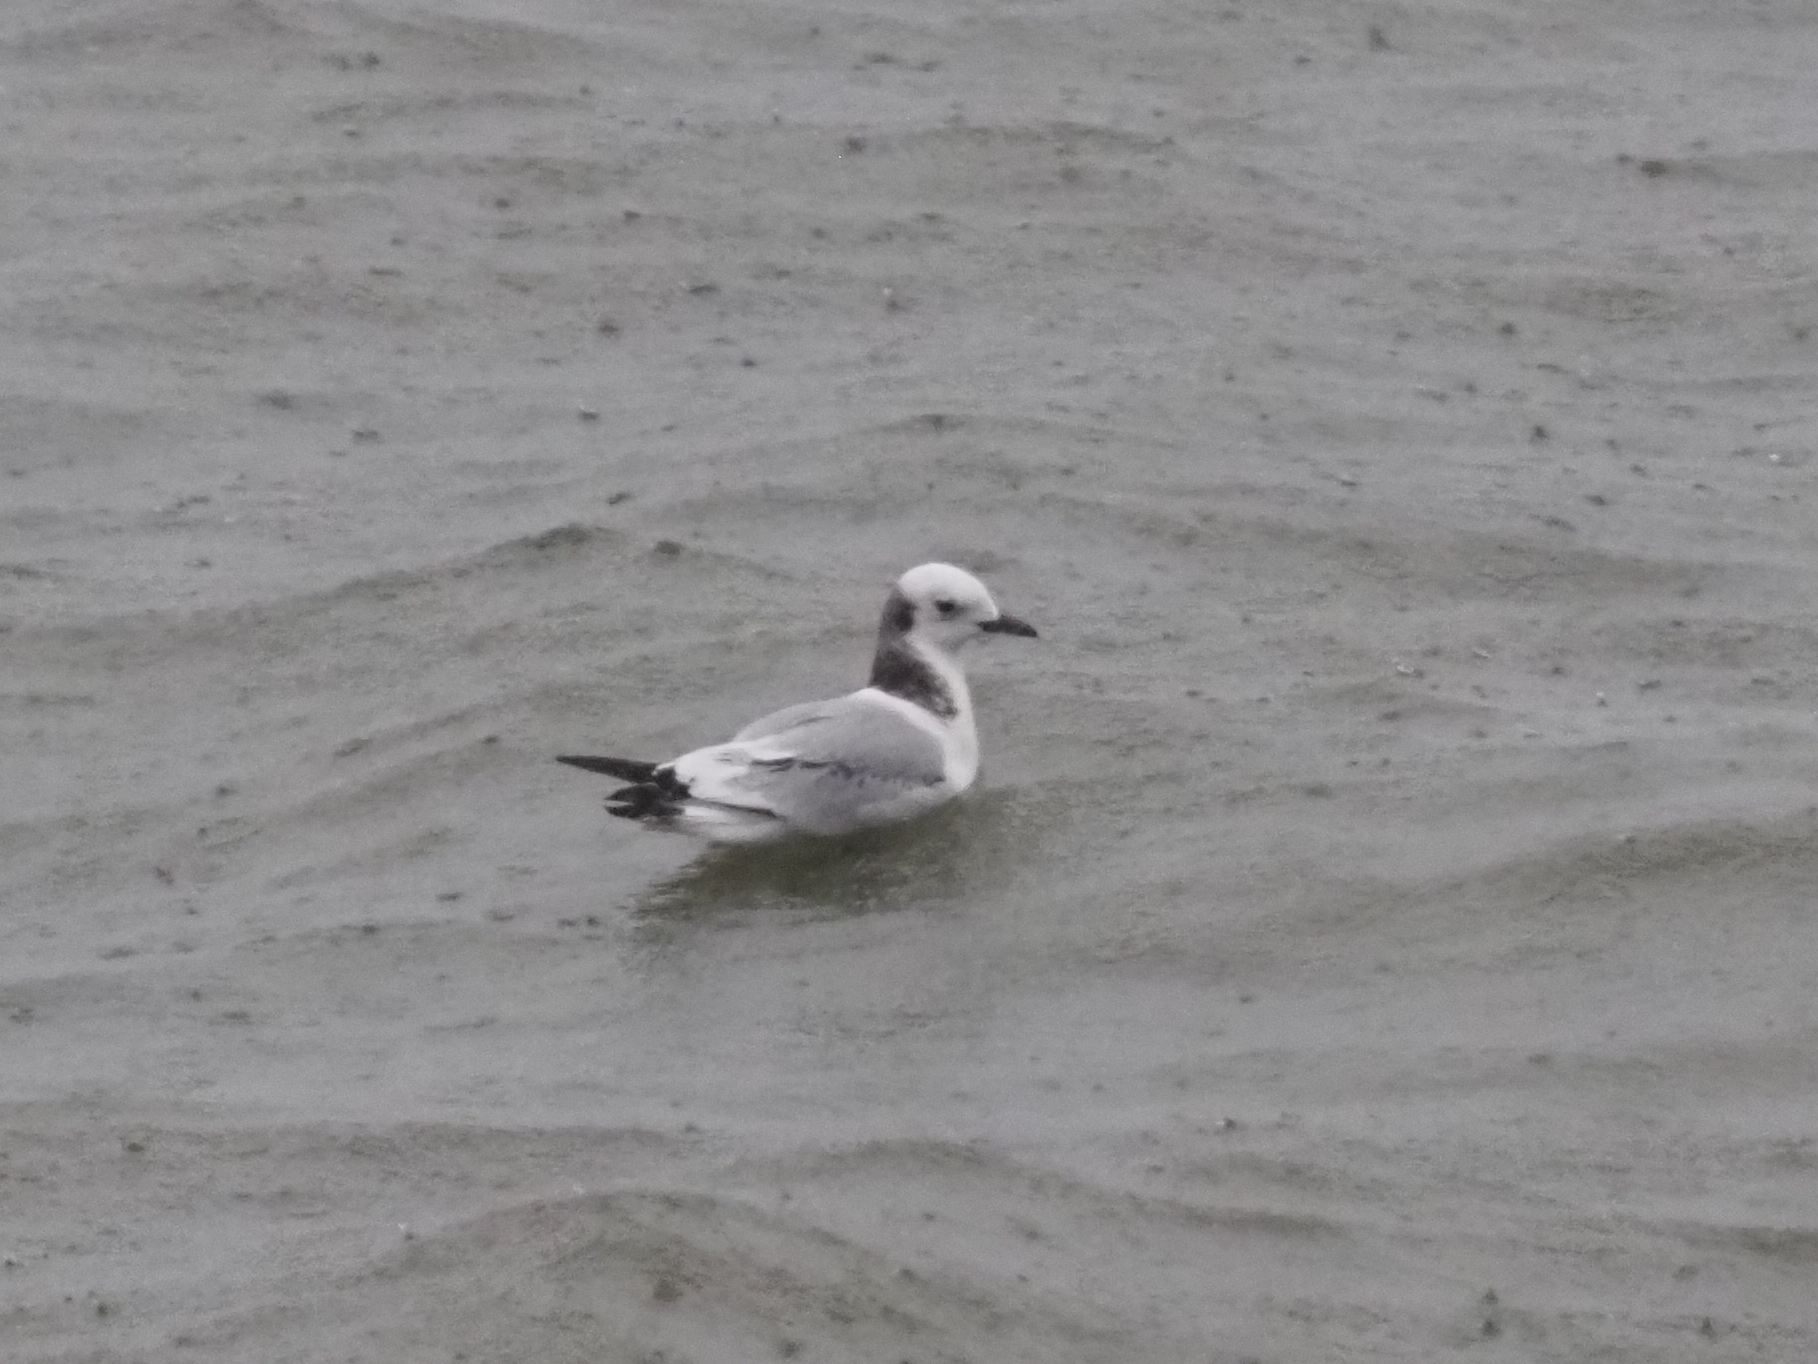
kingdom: Animalia
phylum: Chordata
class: Aves
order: Charadriiformes
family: Laridae
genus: Rissa
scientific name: Rissa tridactyla
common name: Black-legged kittiwake
